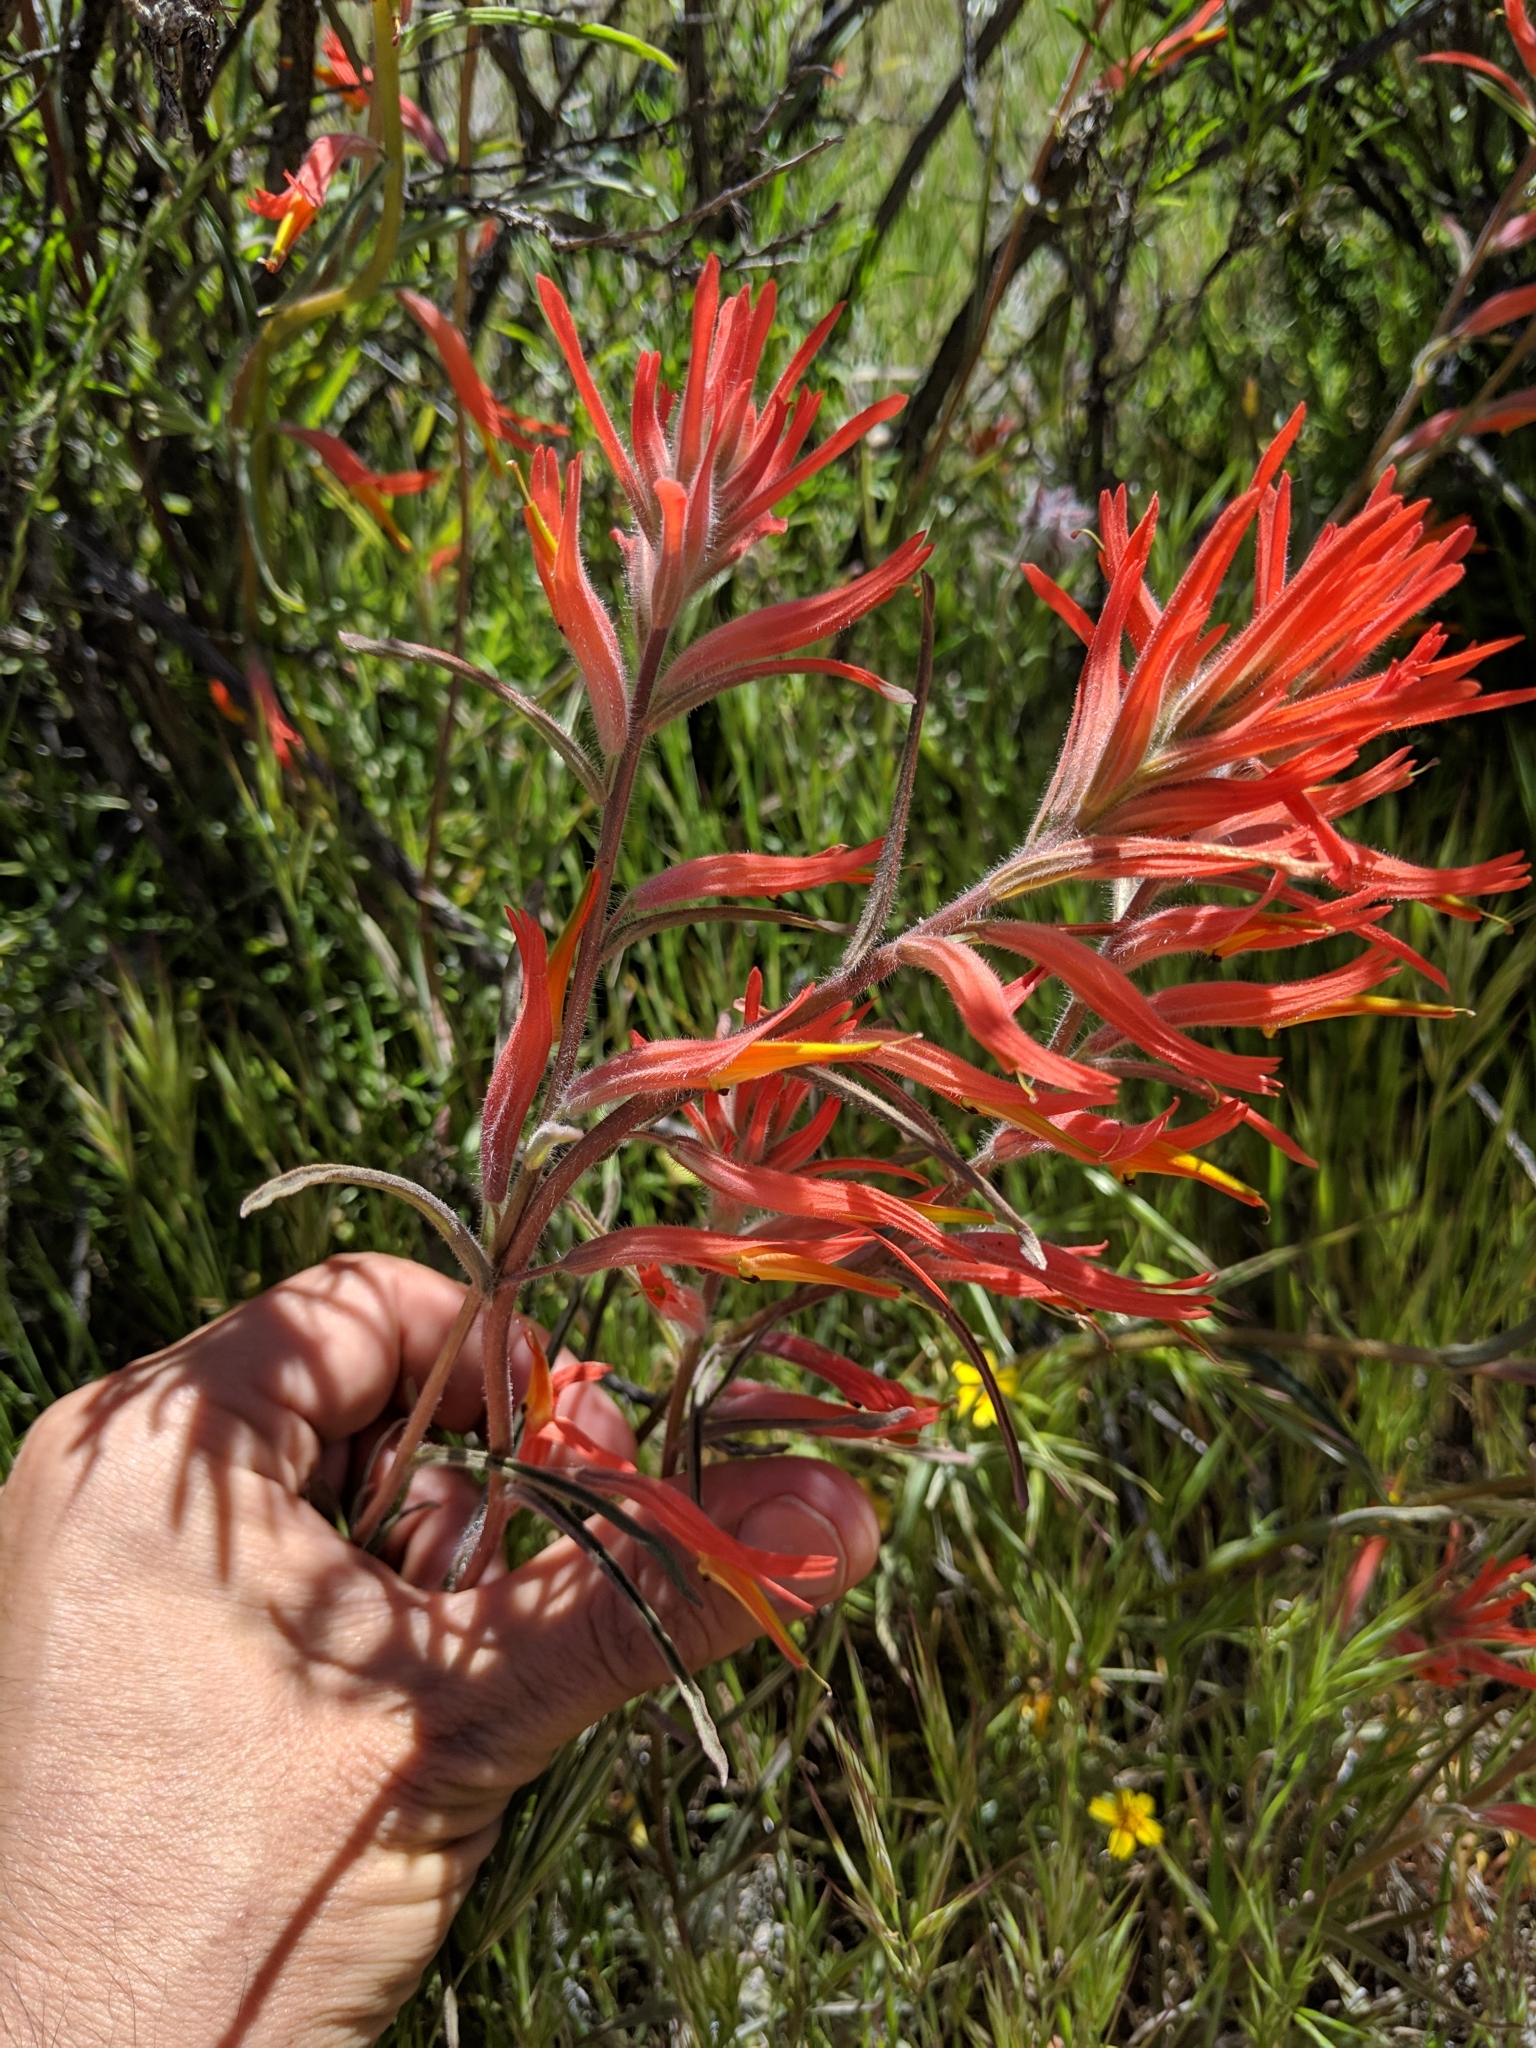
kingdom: Plantae
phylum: Tracheophyta
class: Magnoliopsida
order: Lamiales
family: Orobanchaceae
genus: Castilleja
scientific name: Castilleja subinclusa
